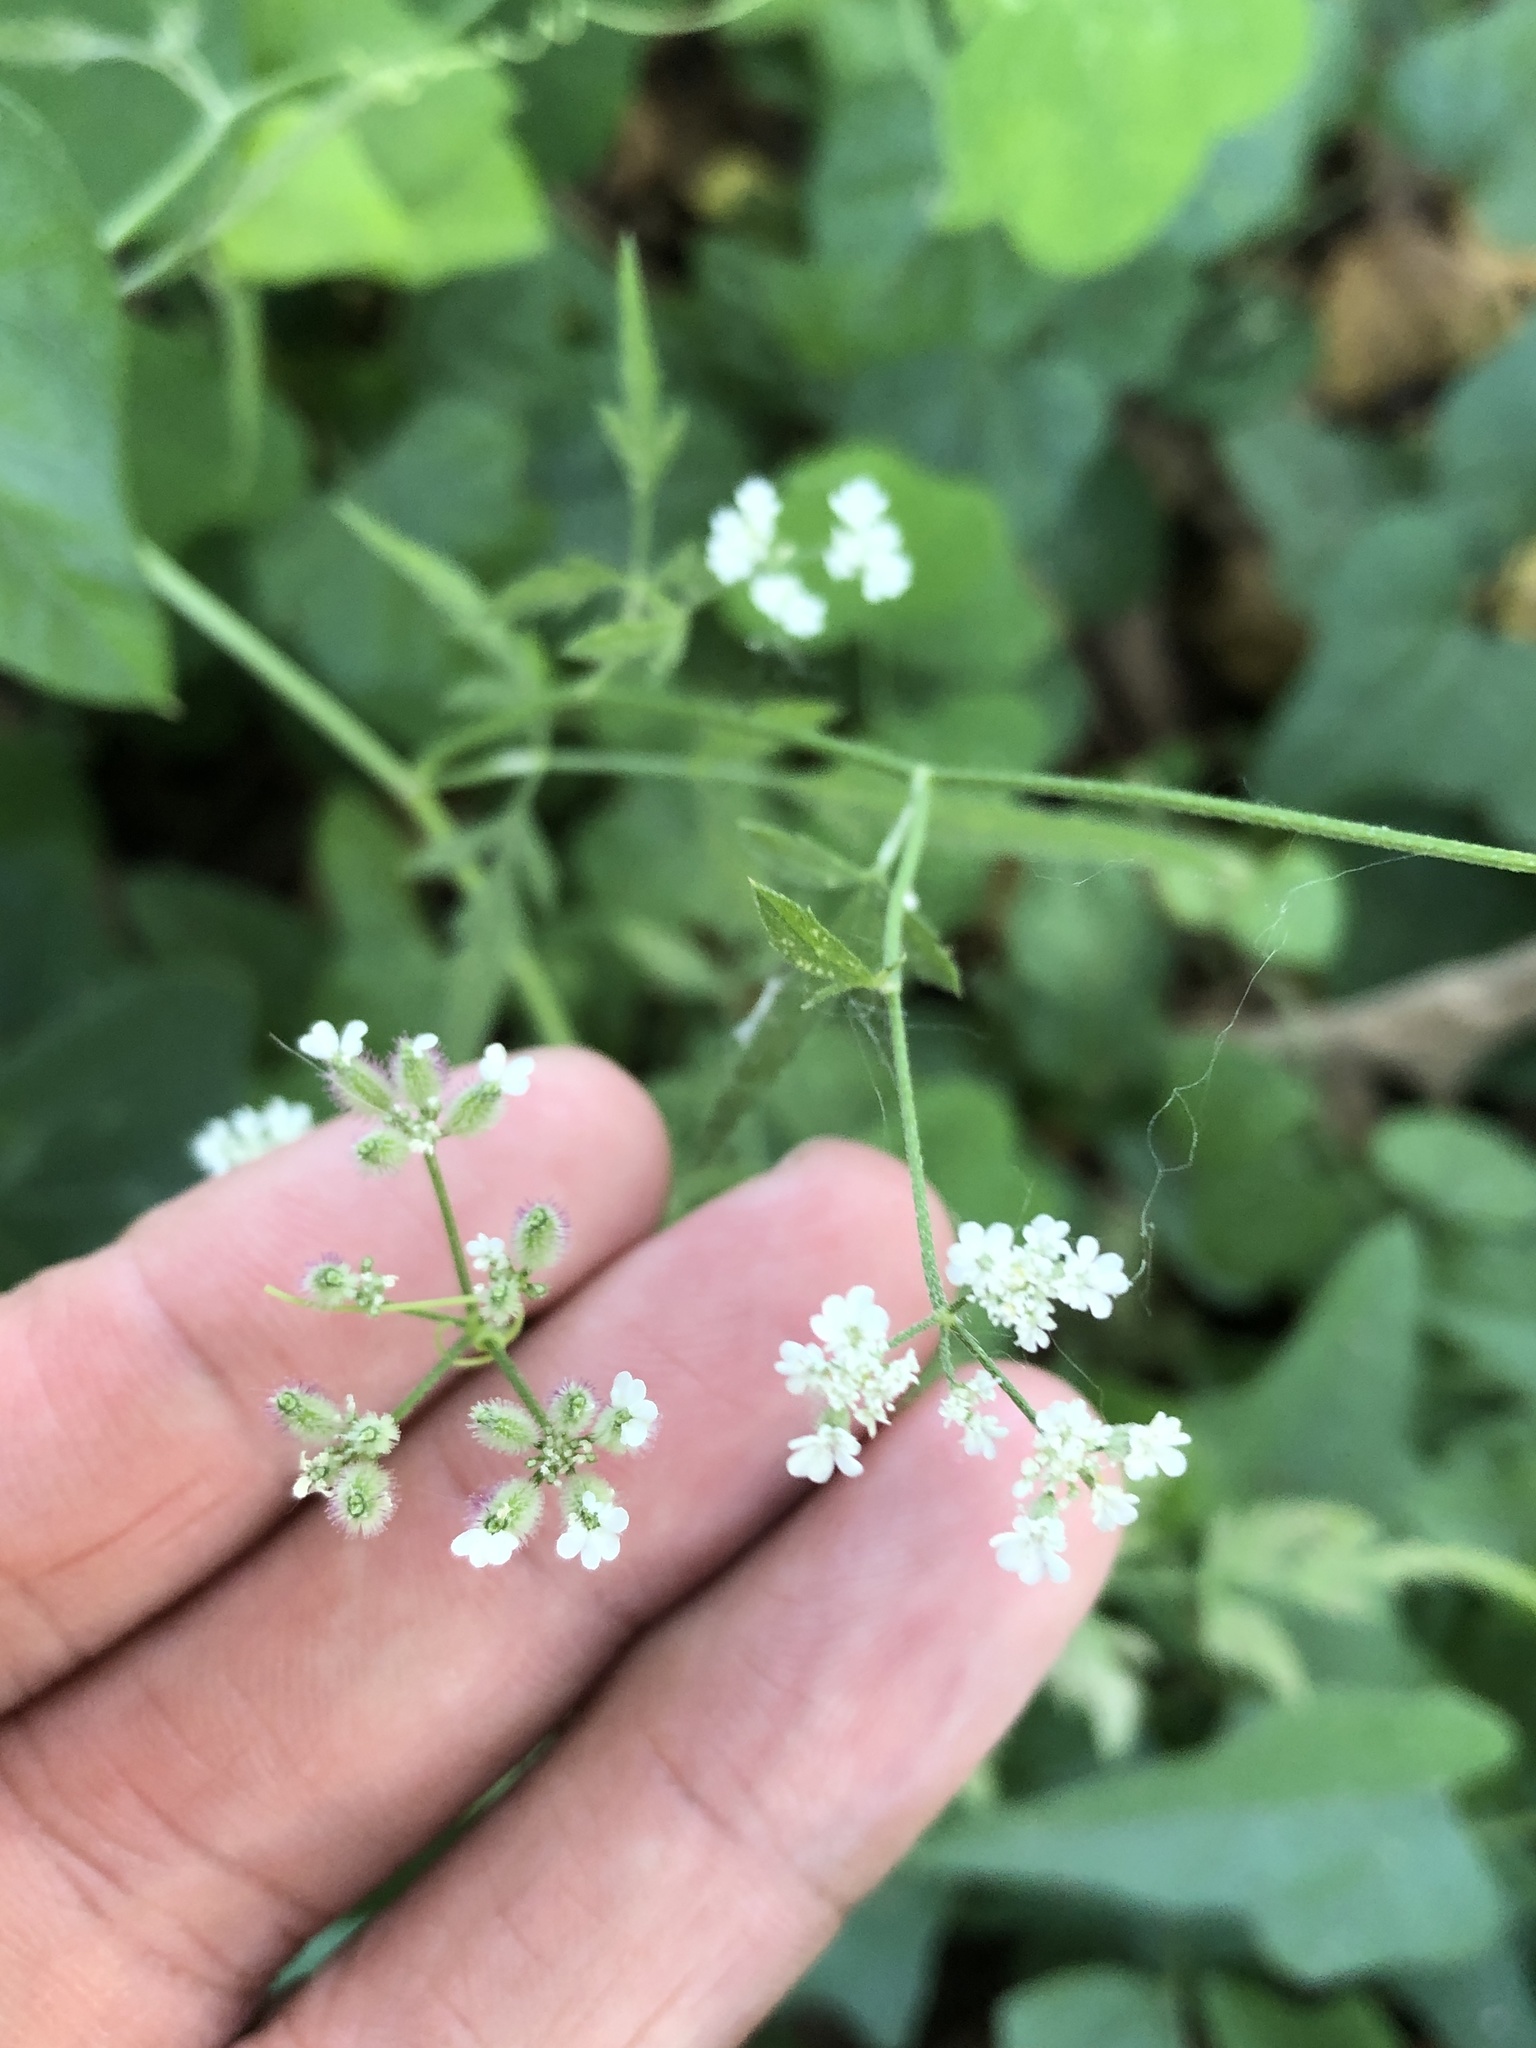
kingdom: Plantae
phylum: Tracheophyta
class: Magnoliopsida
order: Apiales
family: Apiaceae
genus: Torilis
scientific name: Torilis arvensis
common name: Spreading hedge-parsley
